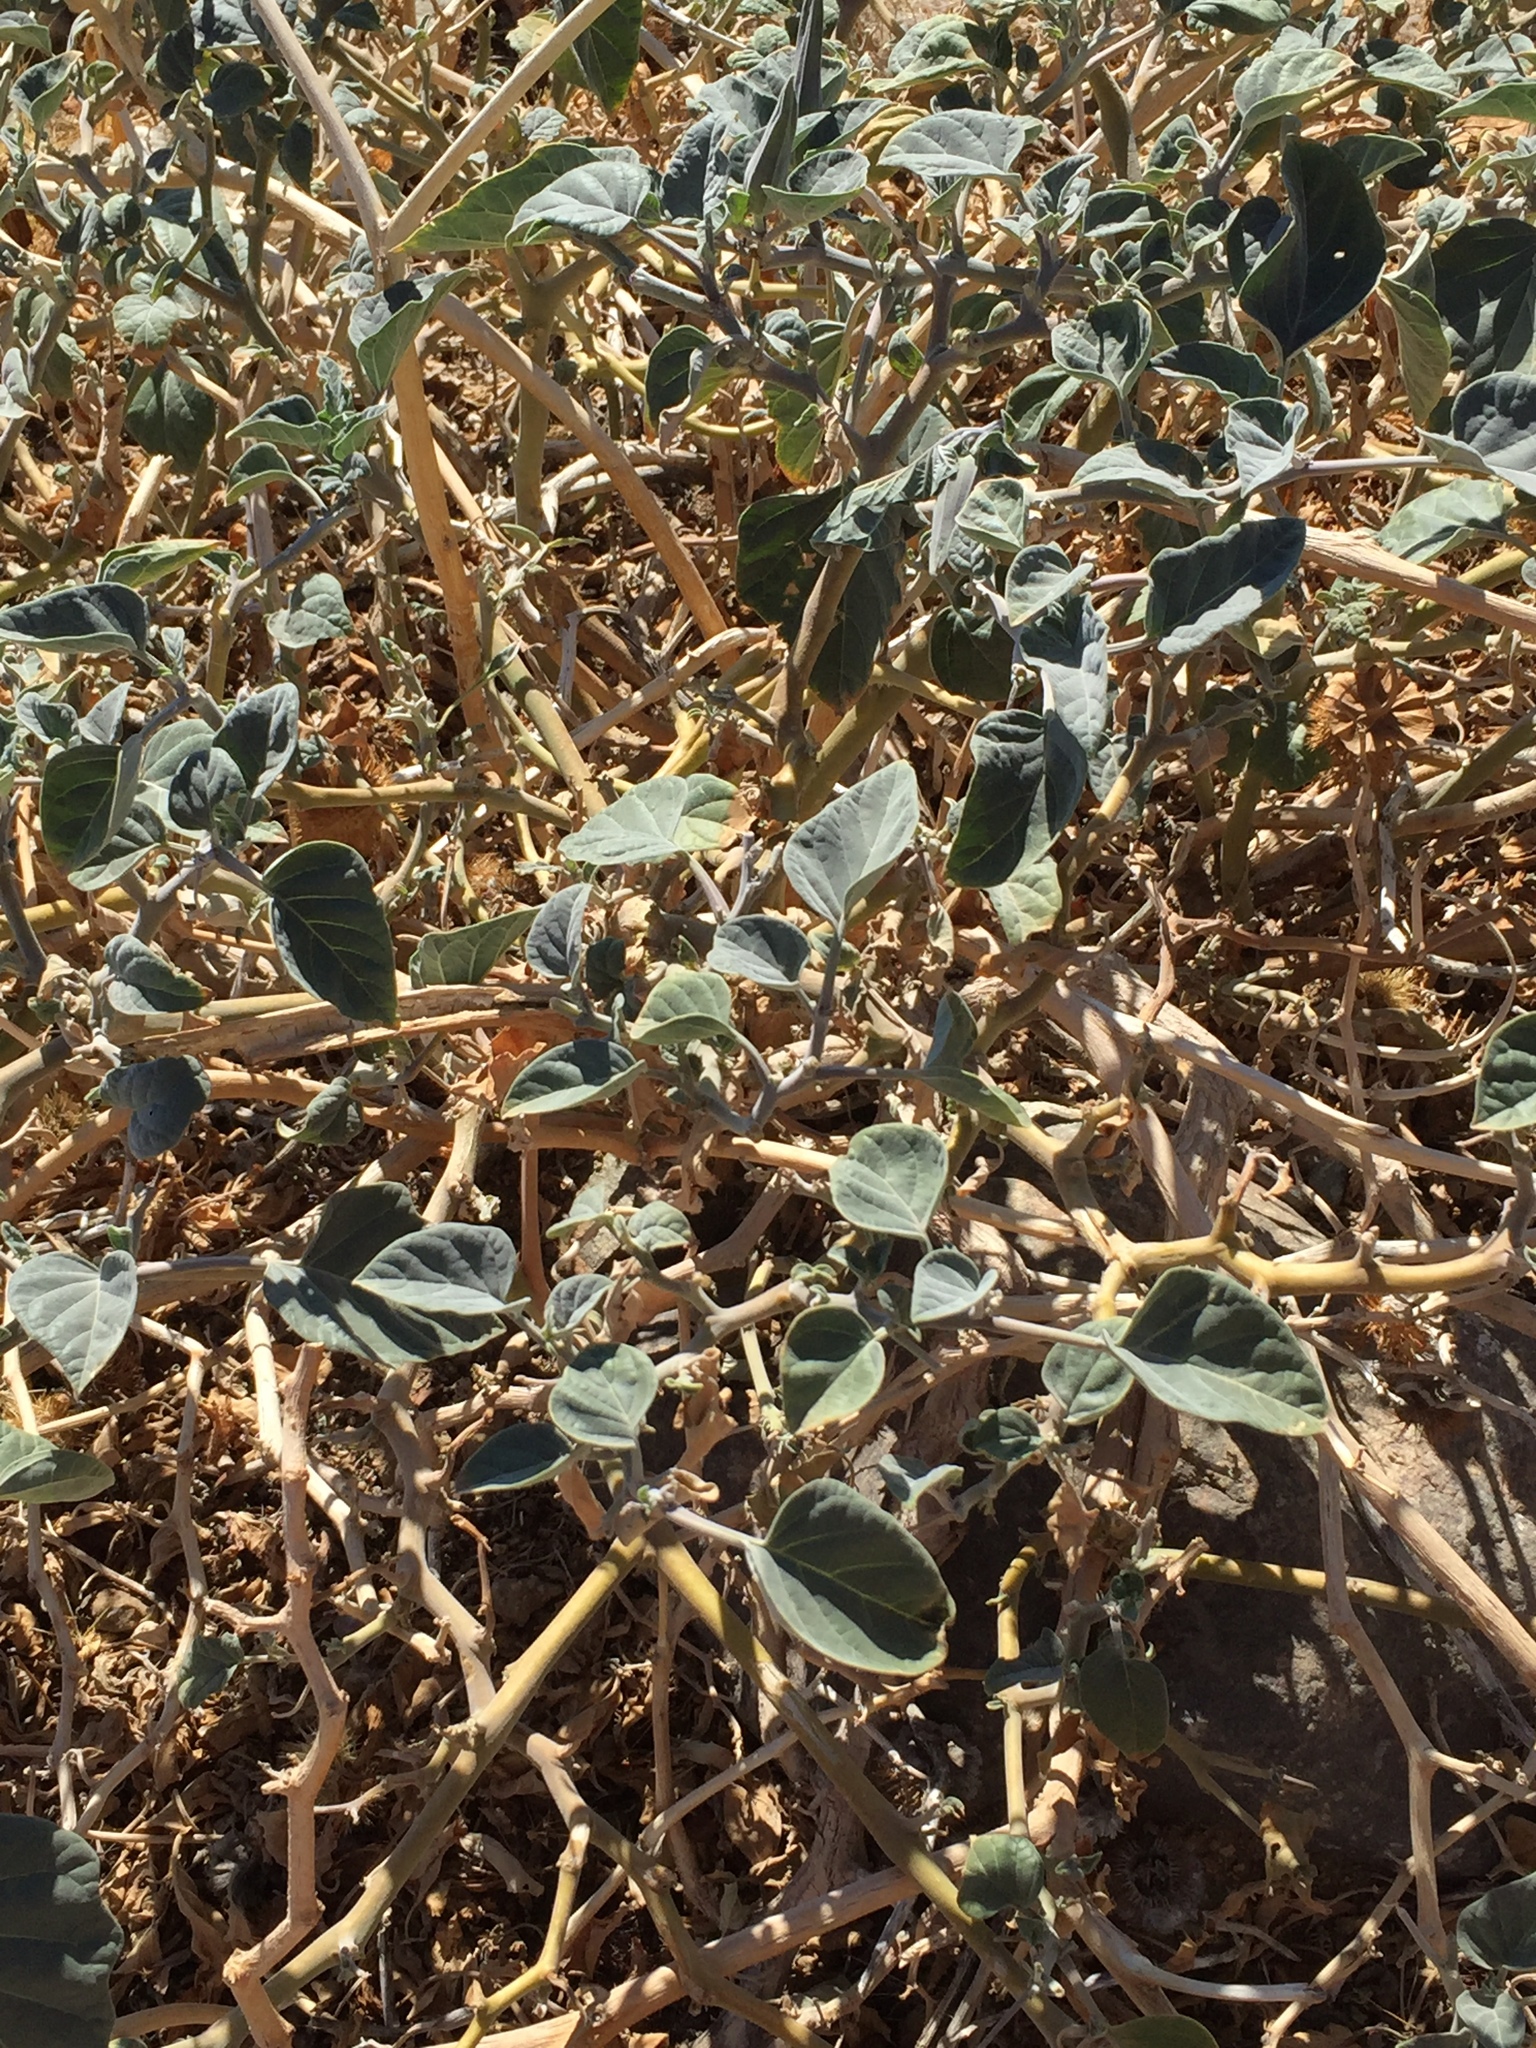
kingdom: Plantae
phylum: Tracheophyta
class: Magnoliopsida
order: Solanales
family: Solanaceae
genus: Datura
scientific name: Datura wrightii
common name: Sacred thorn-apple
